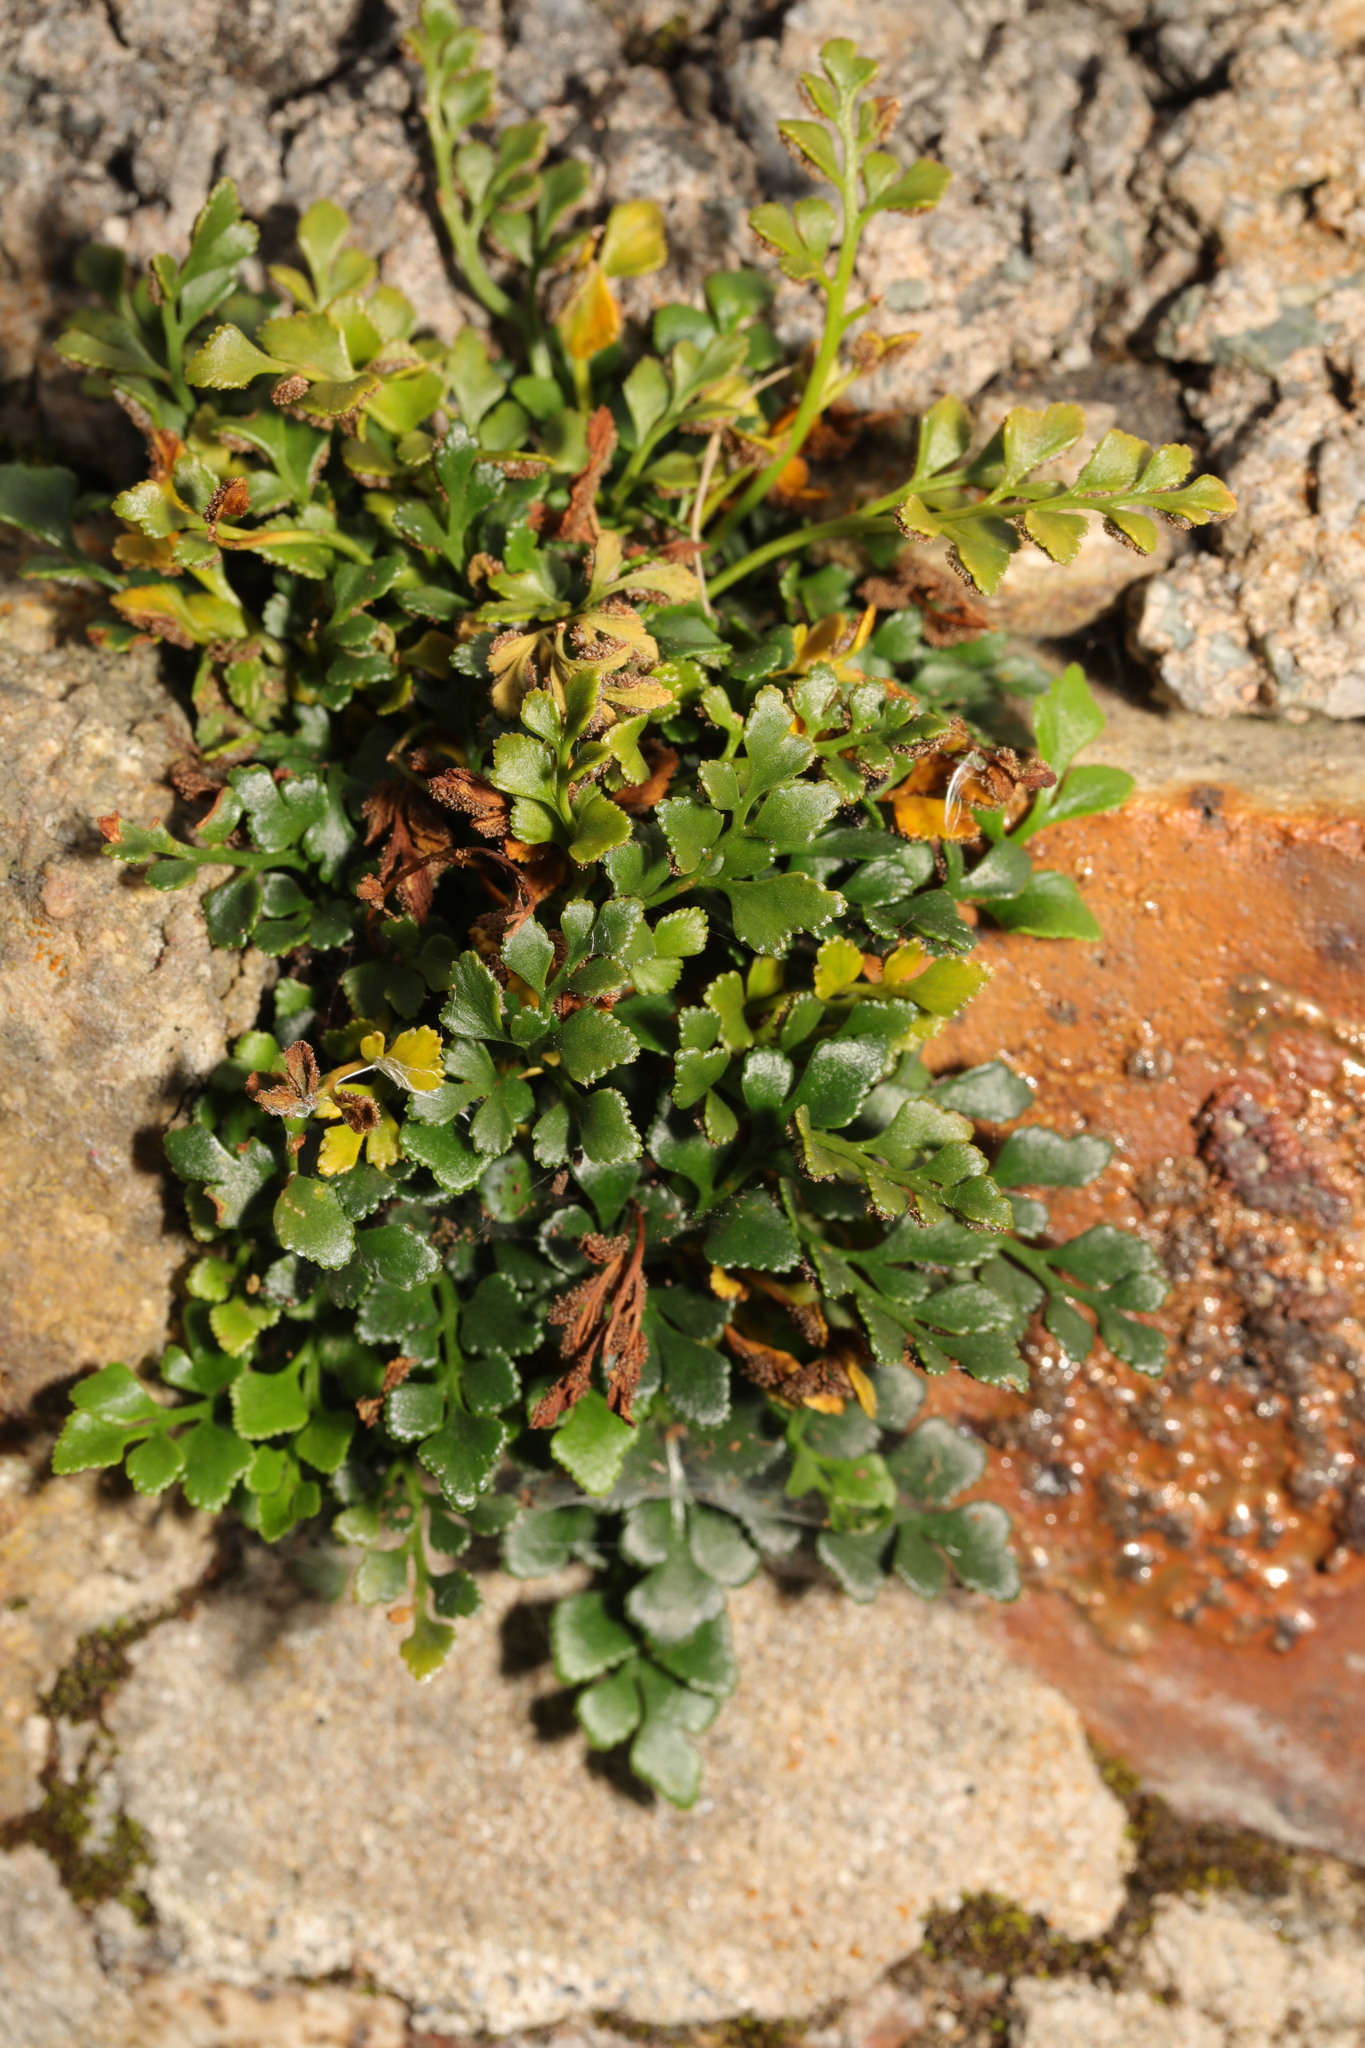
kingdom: Plantae
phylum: Tracheophyta
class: Polypodiopsida
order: Polypodiales
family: Aspleniaceae
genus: Asplenium
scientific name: Asplenium ruta-muraria
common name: Wall-rue
